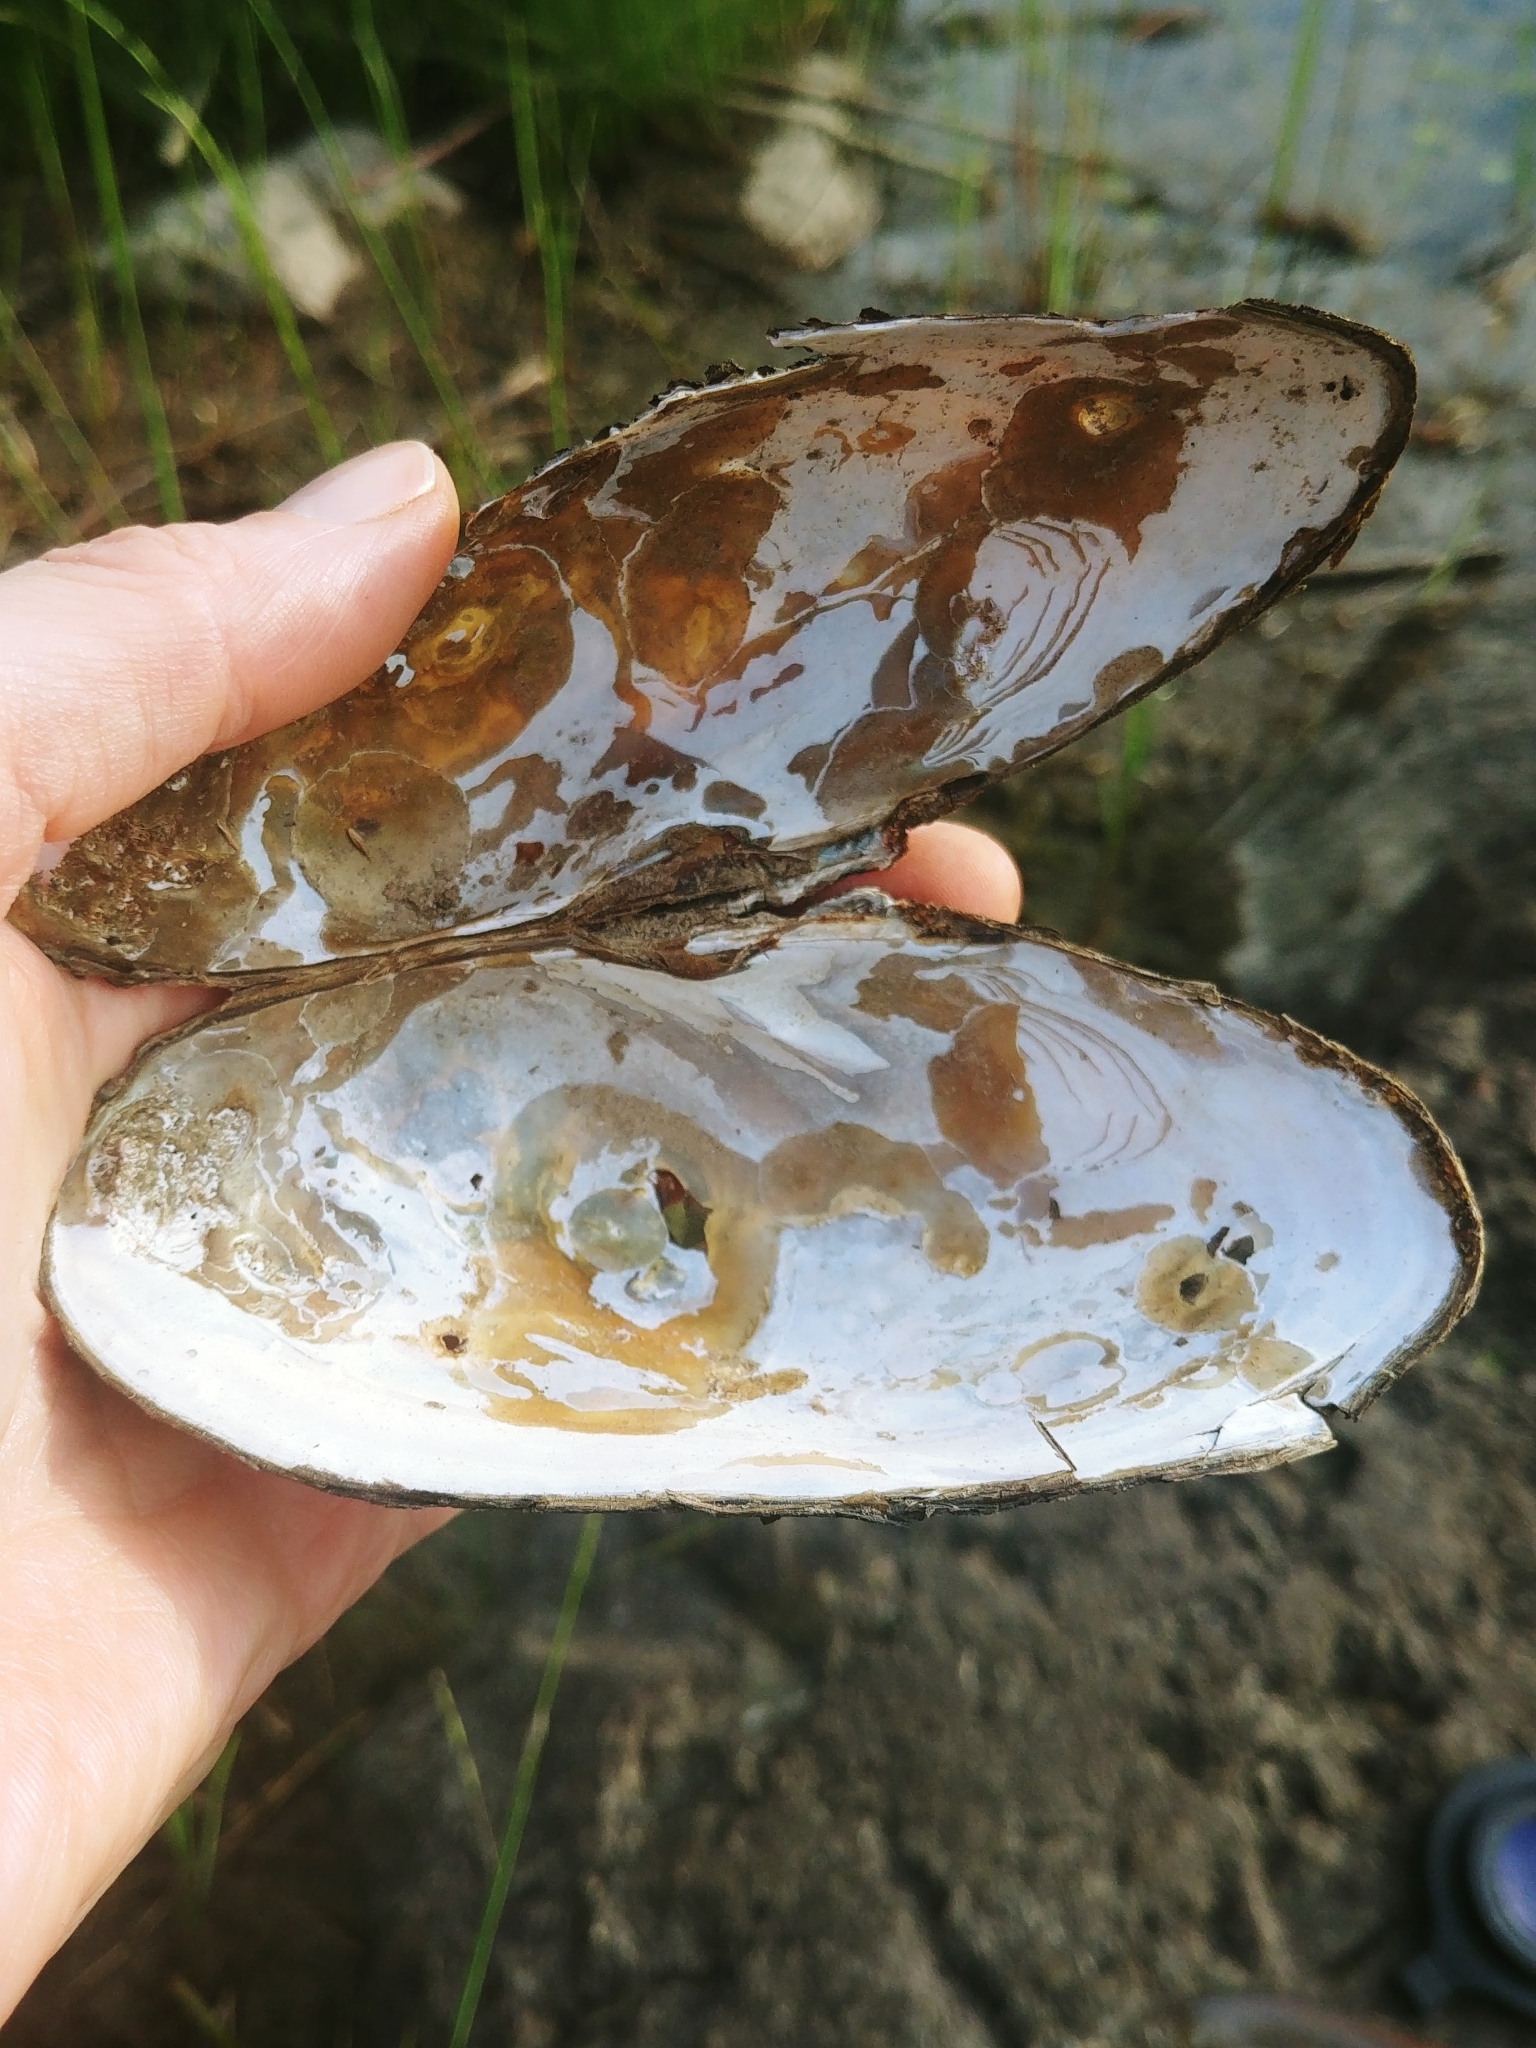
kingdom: Animalia
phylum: Mollusca
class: Bivalvia
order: Unionida
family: Unionidae
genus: Utterbackiana
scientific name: Utterbackiana implicata
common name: Alewife floater
